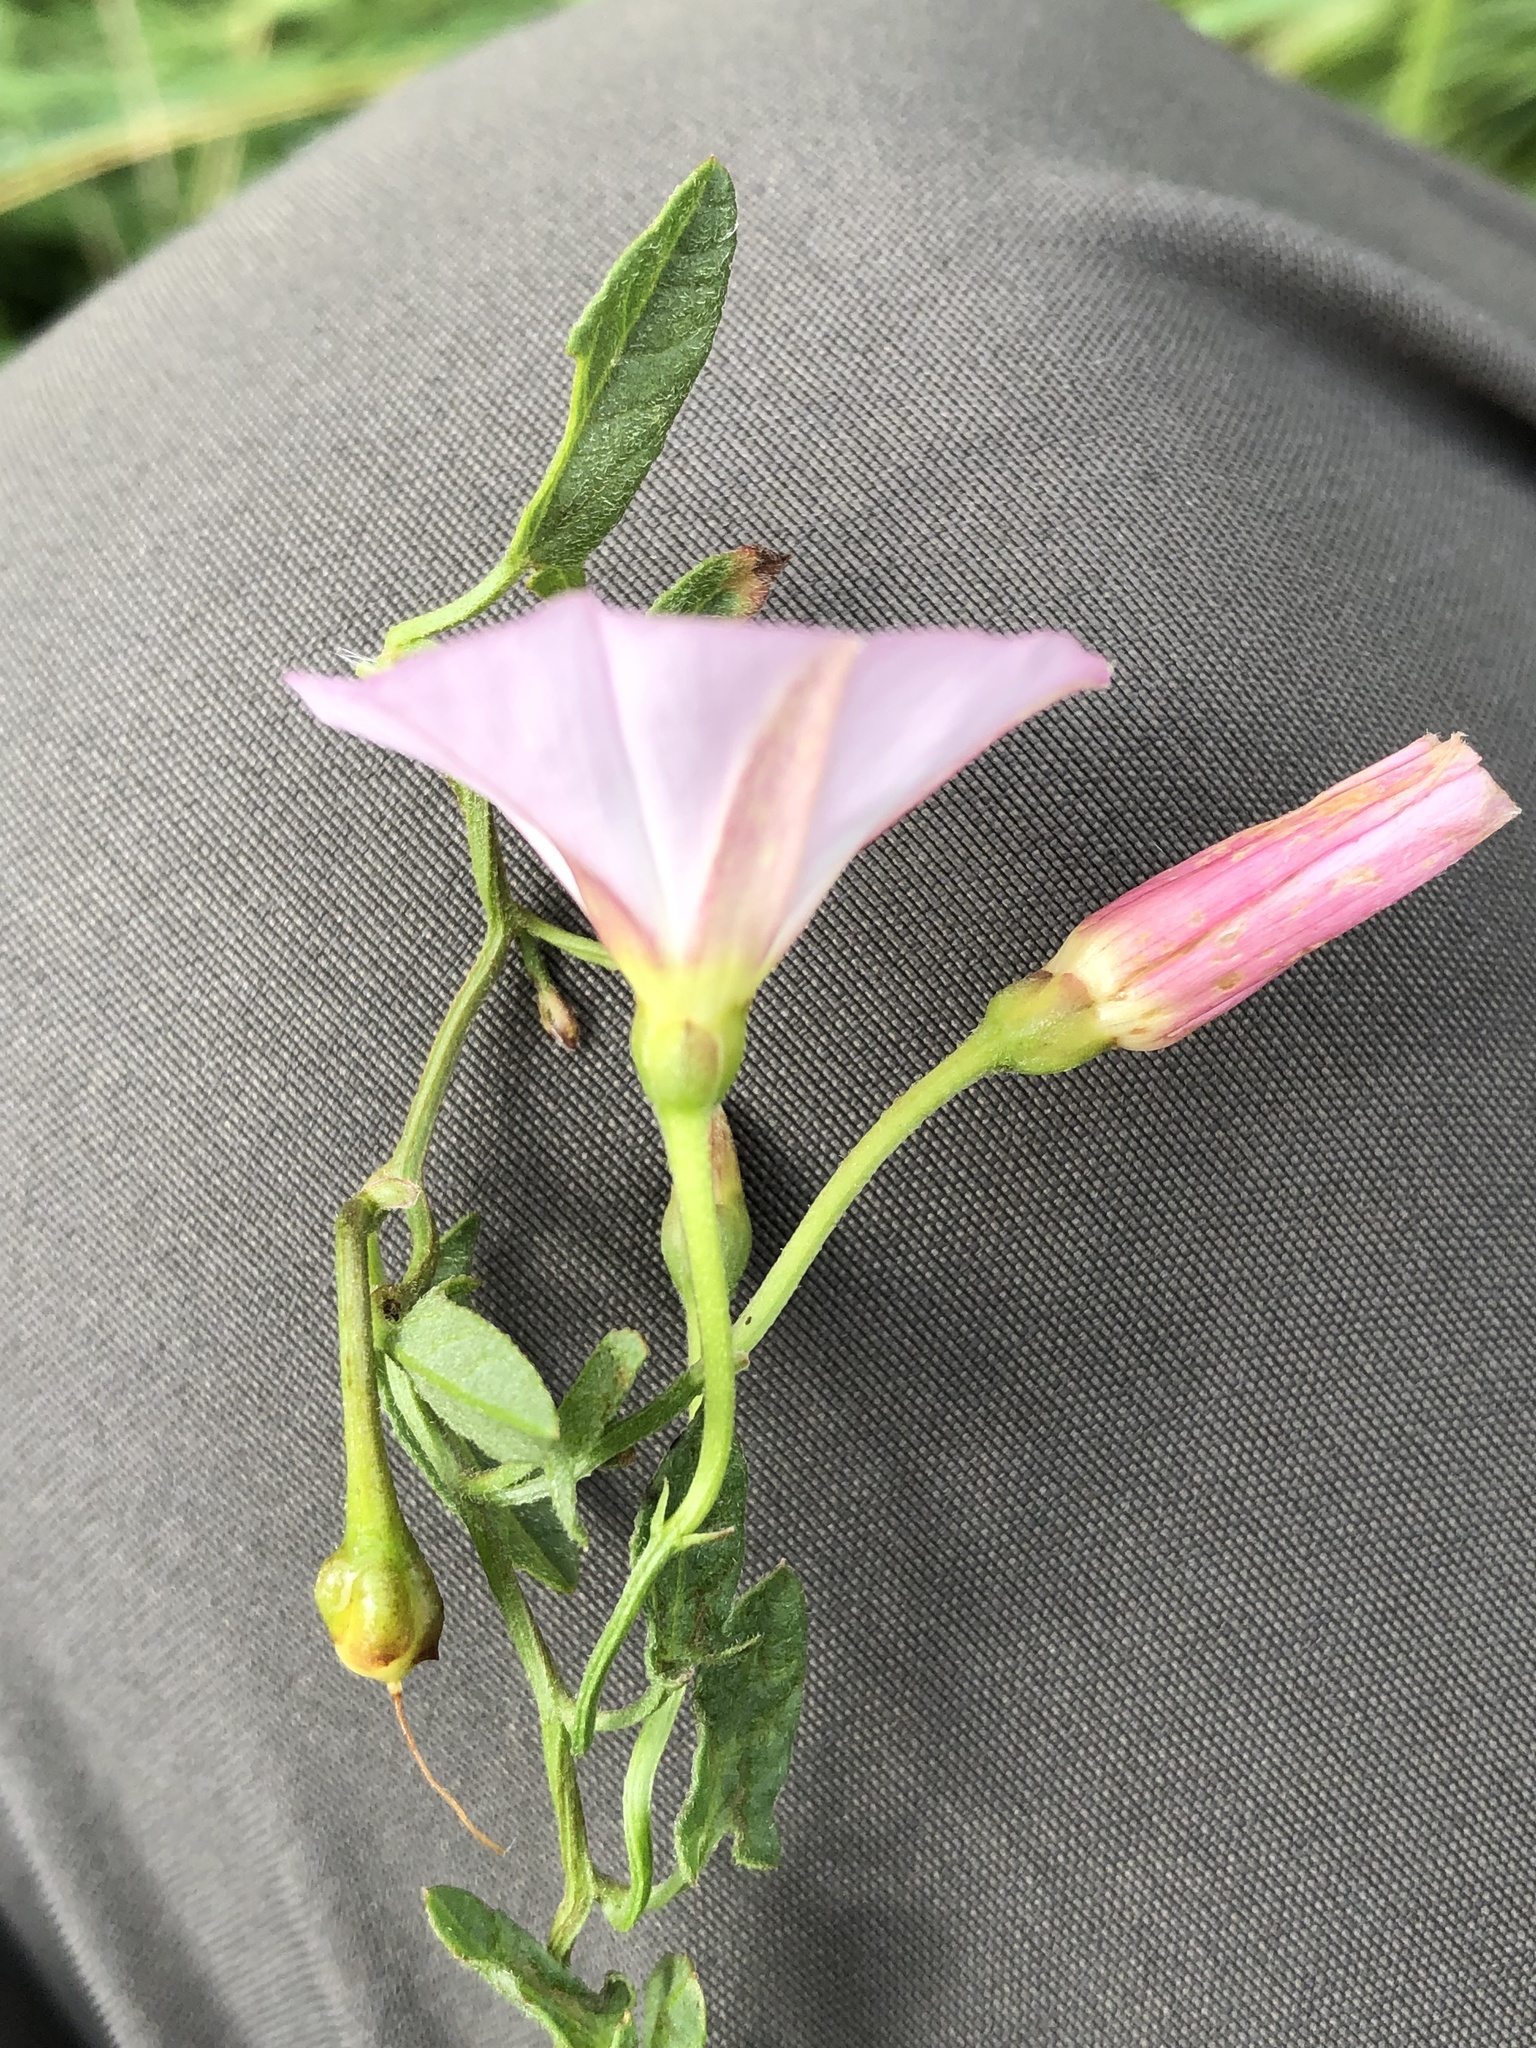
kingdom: Plantae
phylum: Tracheophyta
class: Magnoliopsida
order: Solanales
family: Convolvulaceae
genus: Convolvulus
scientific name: Convolvulus arvensis
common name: Field bindweed
